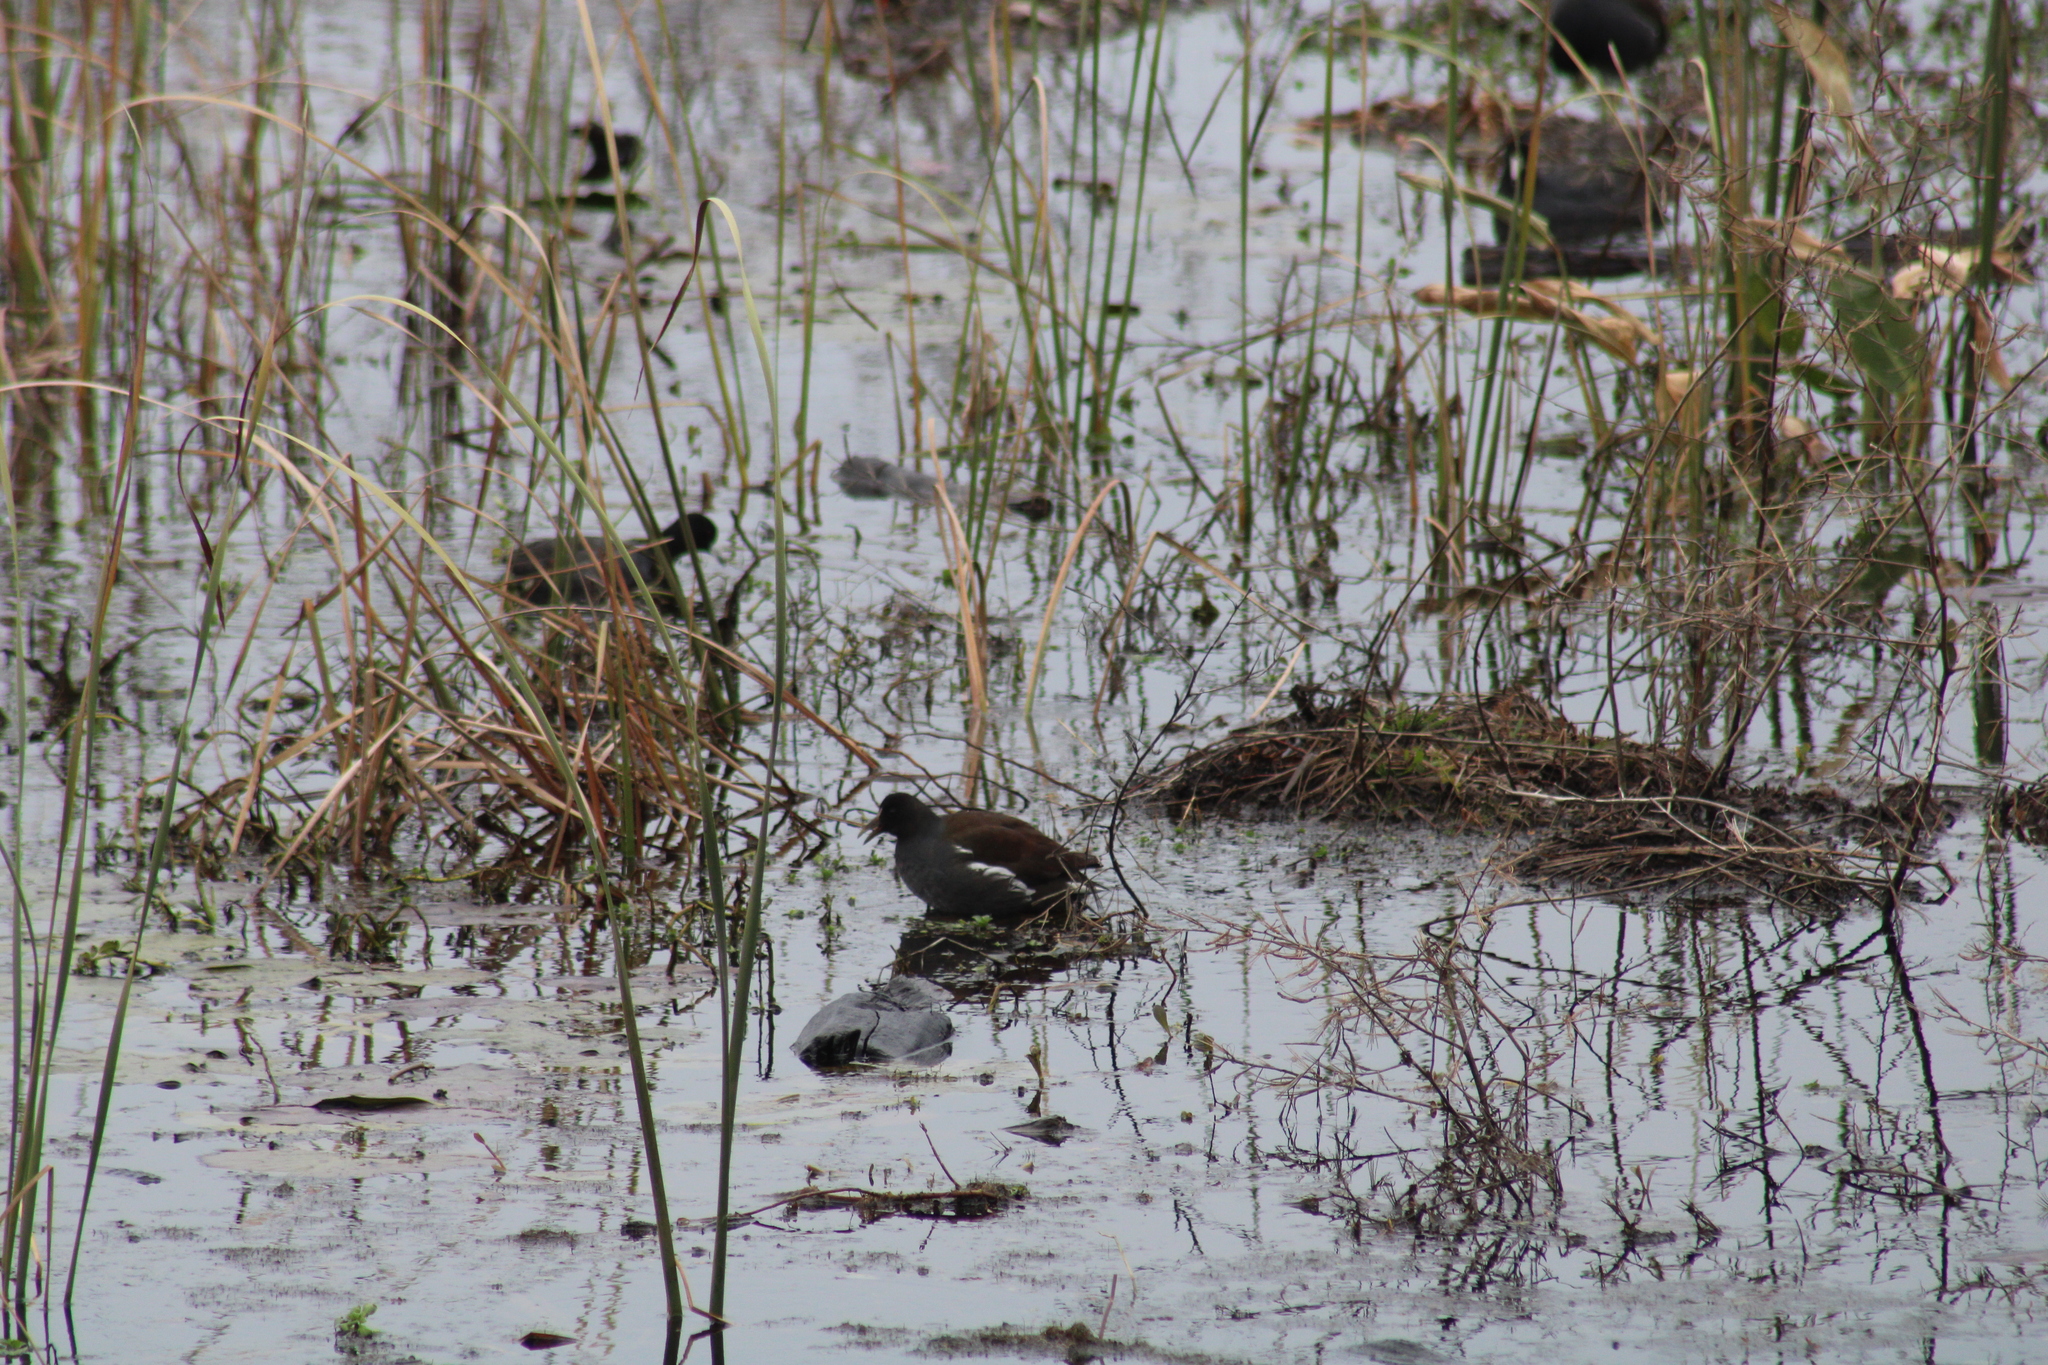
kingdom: Animalia
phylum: Chordata
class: Aves
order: Gruiformes
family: Rallidae
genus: Gallinula
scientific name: Gallinula chloropus
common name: Common moorhen
